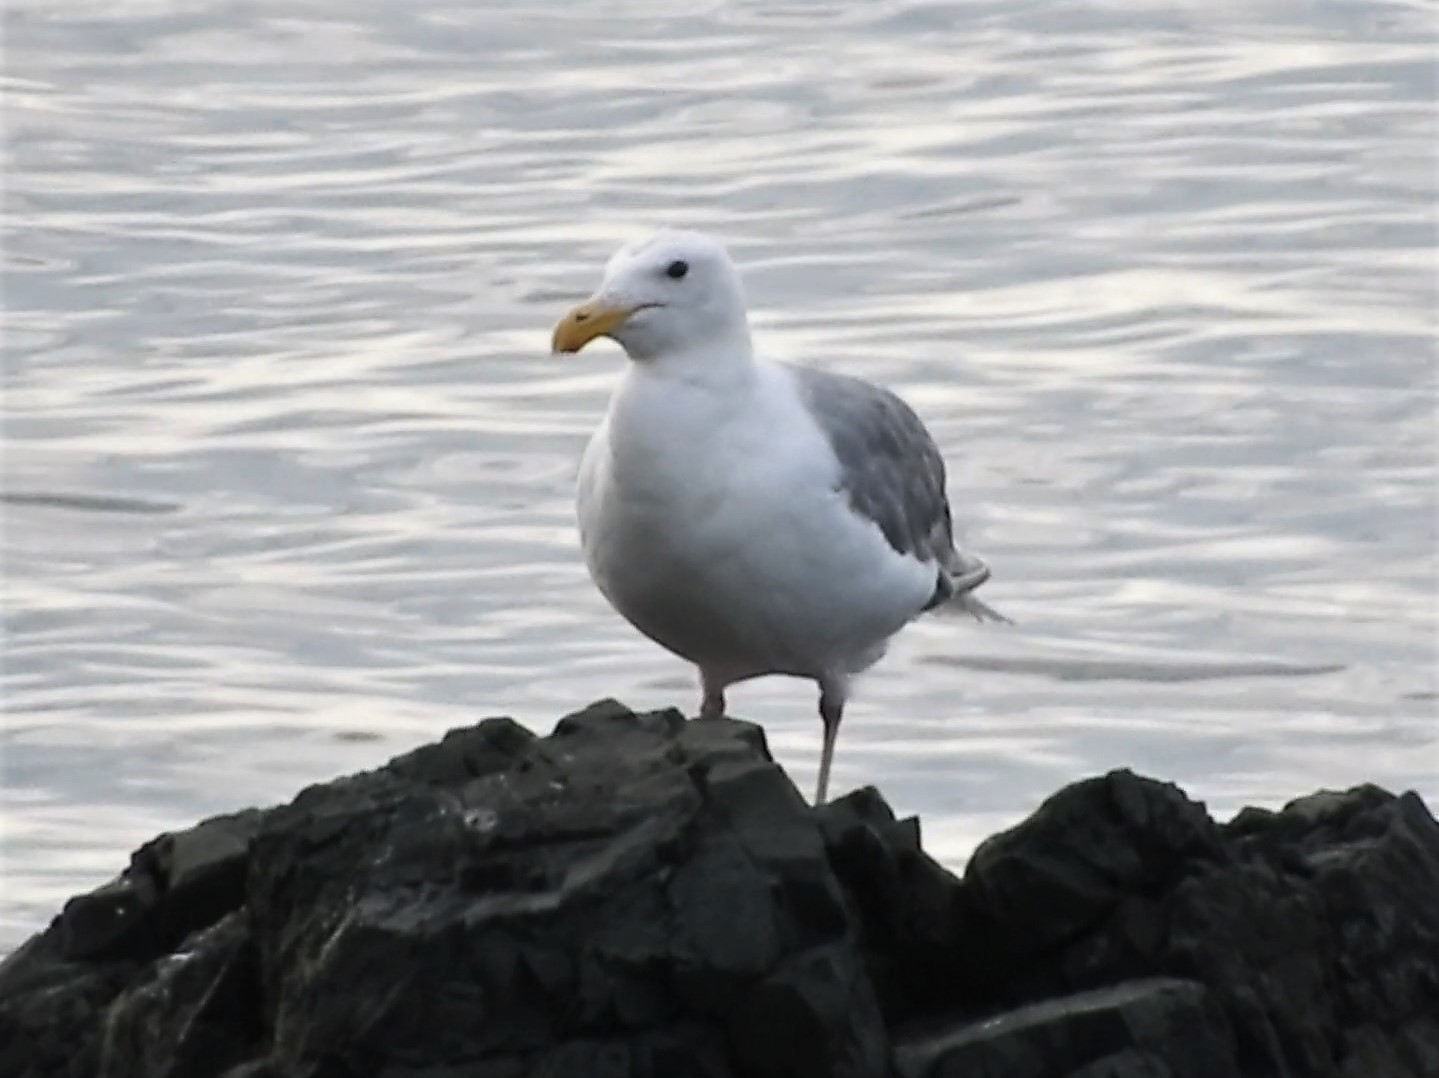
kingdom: Animalia
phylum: Chordata
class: Aves
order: Charadriiformes
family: Laridae
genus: Larus
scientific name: Larus glaucescens
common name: Glaucous-winged gull
